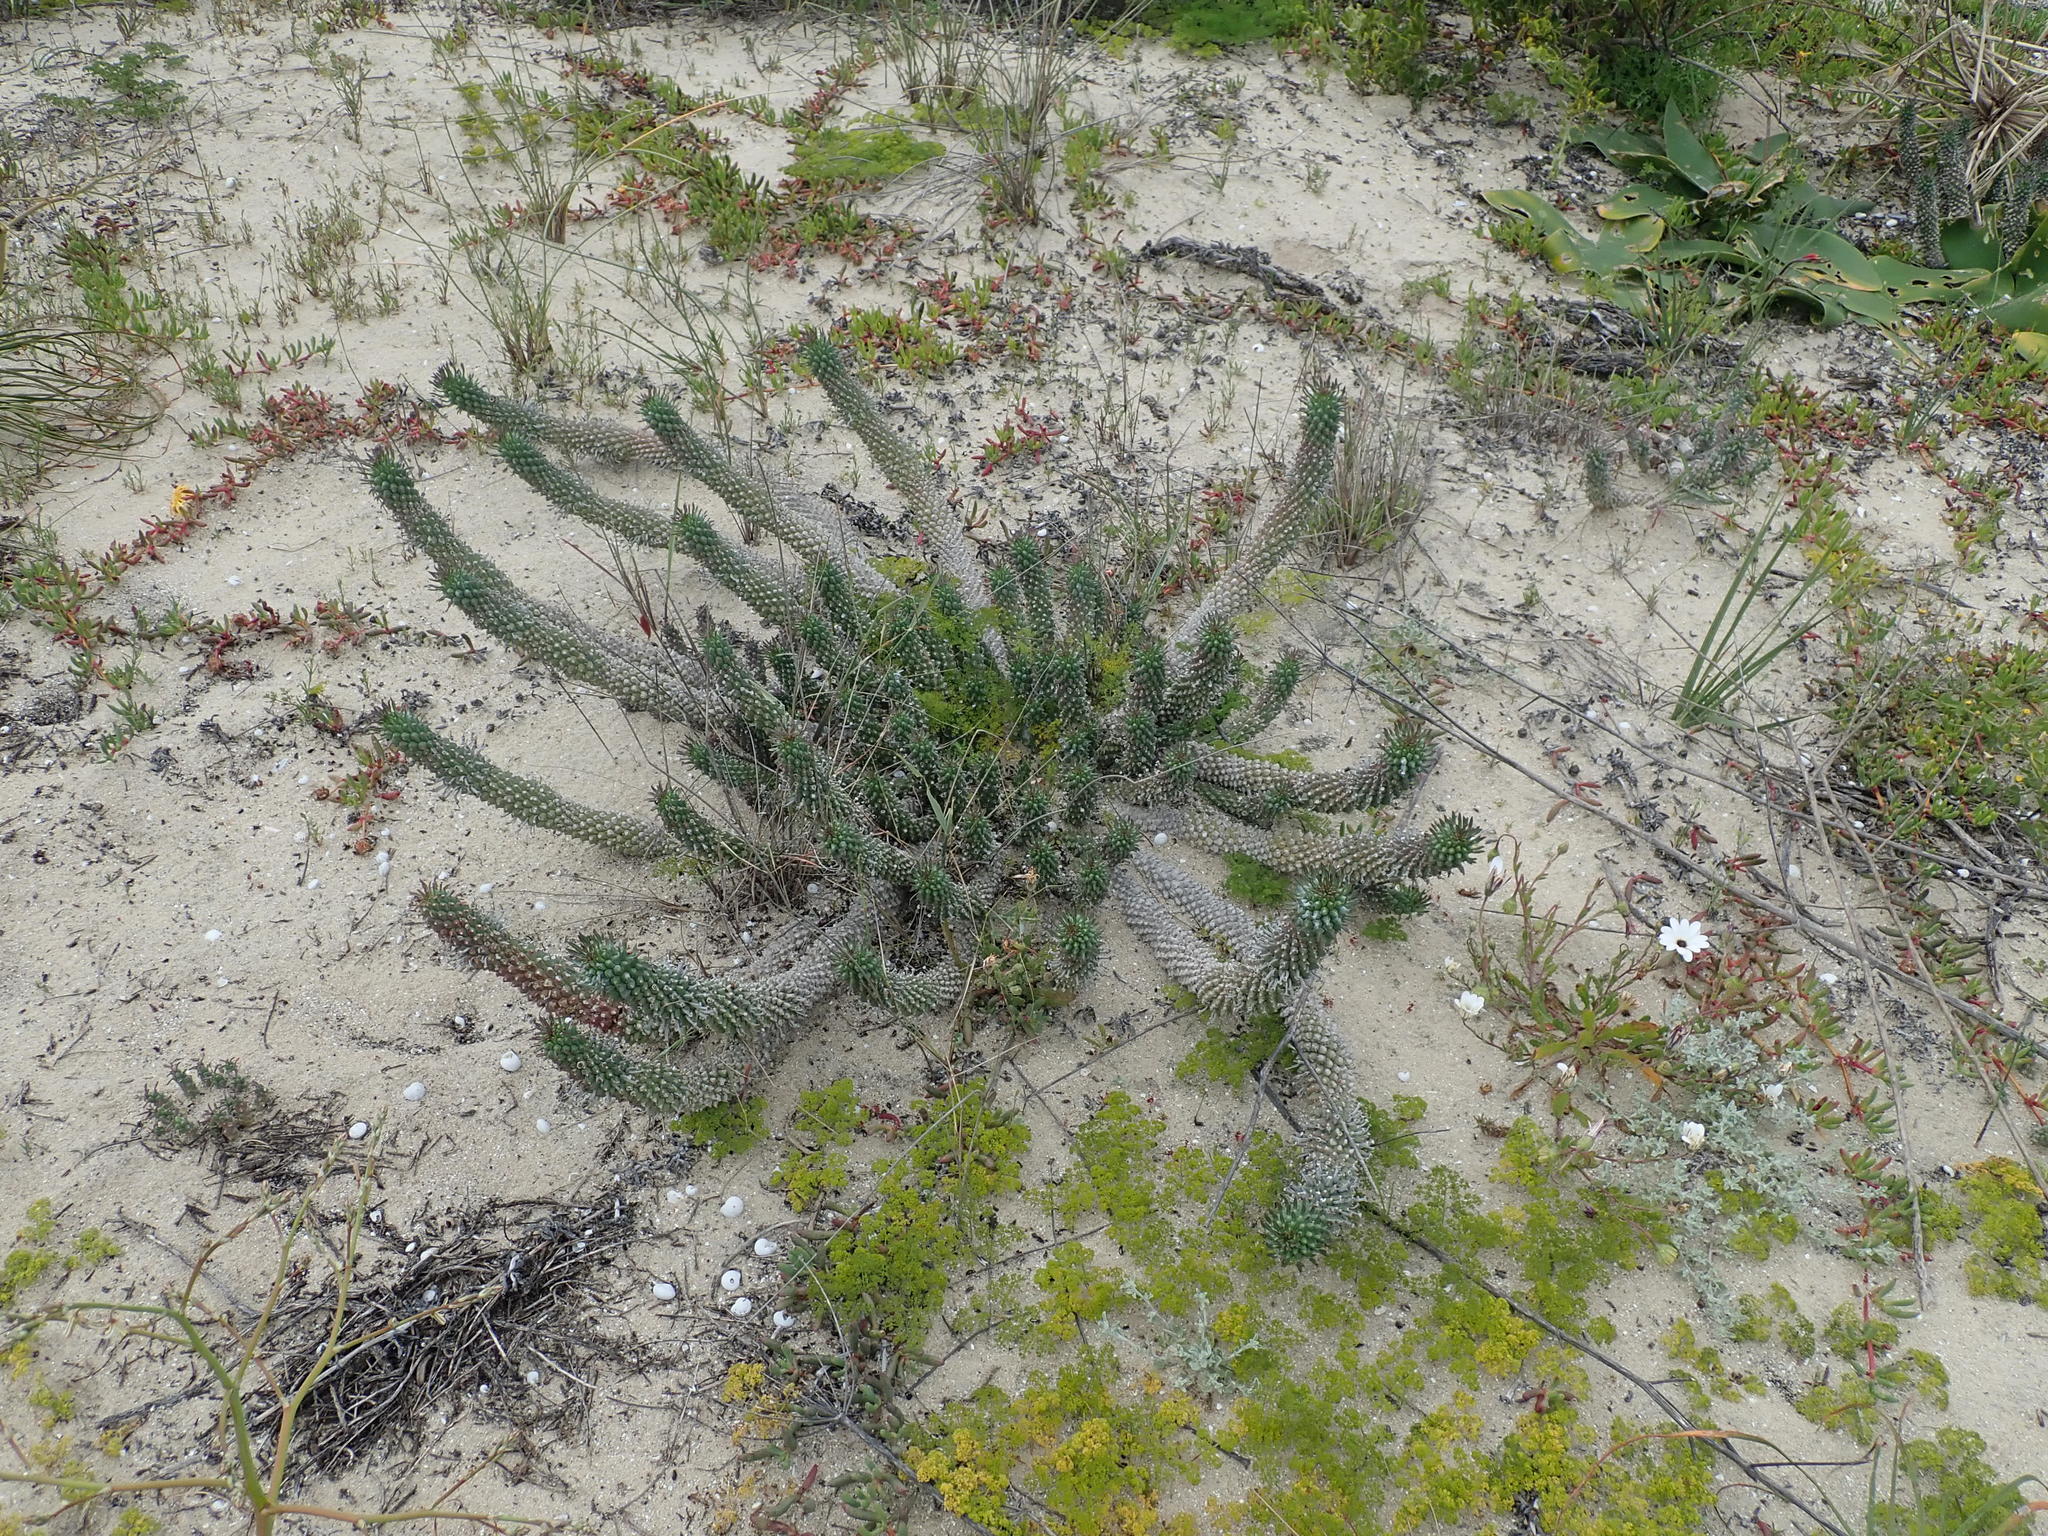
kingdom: Plantae
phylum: Tracheophyta
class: Magnoliopsida
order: Malpighiales
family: Euphorbiaceae
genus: Euphorbia
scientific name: Euphorbia caput-medusae
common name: Medusa's-head
